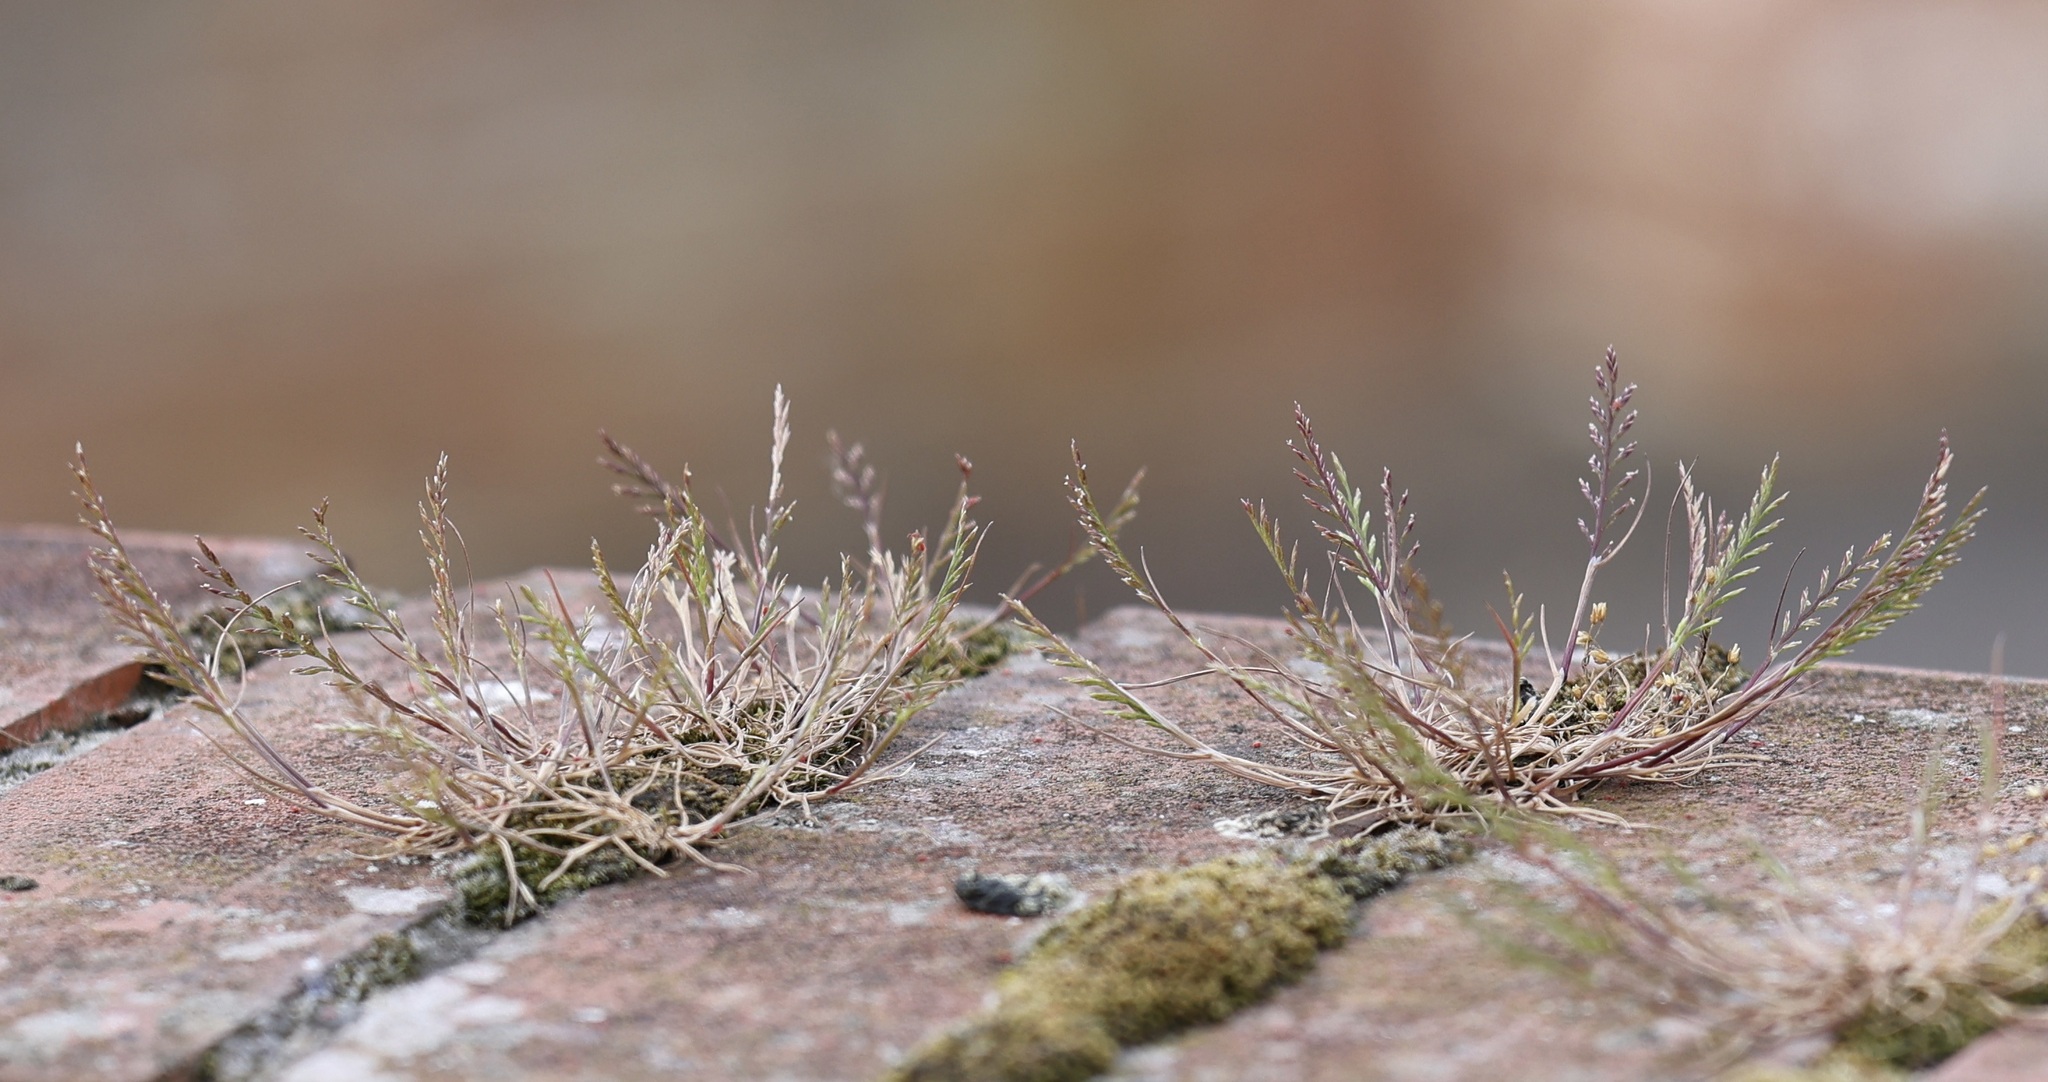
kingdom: Plantae
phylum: Tracheophyta
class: Liliopsida
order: Poales
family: Poaceae
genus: Catapodium
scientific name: Catapodium rigidum
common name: Fern-grass
